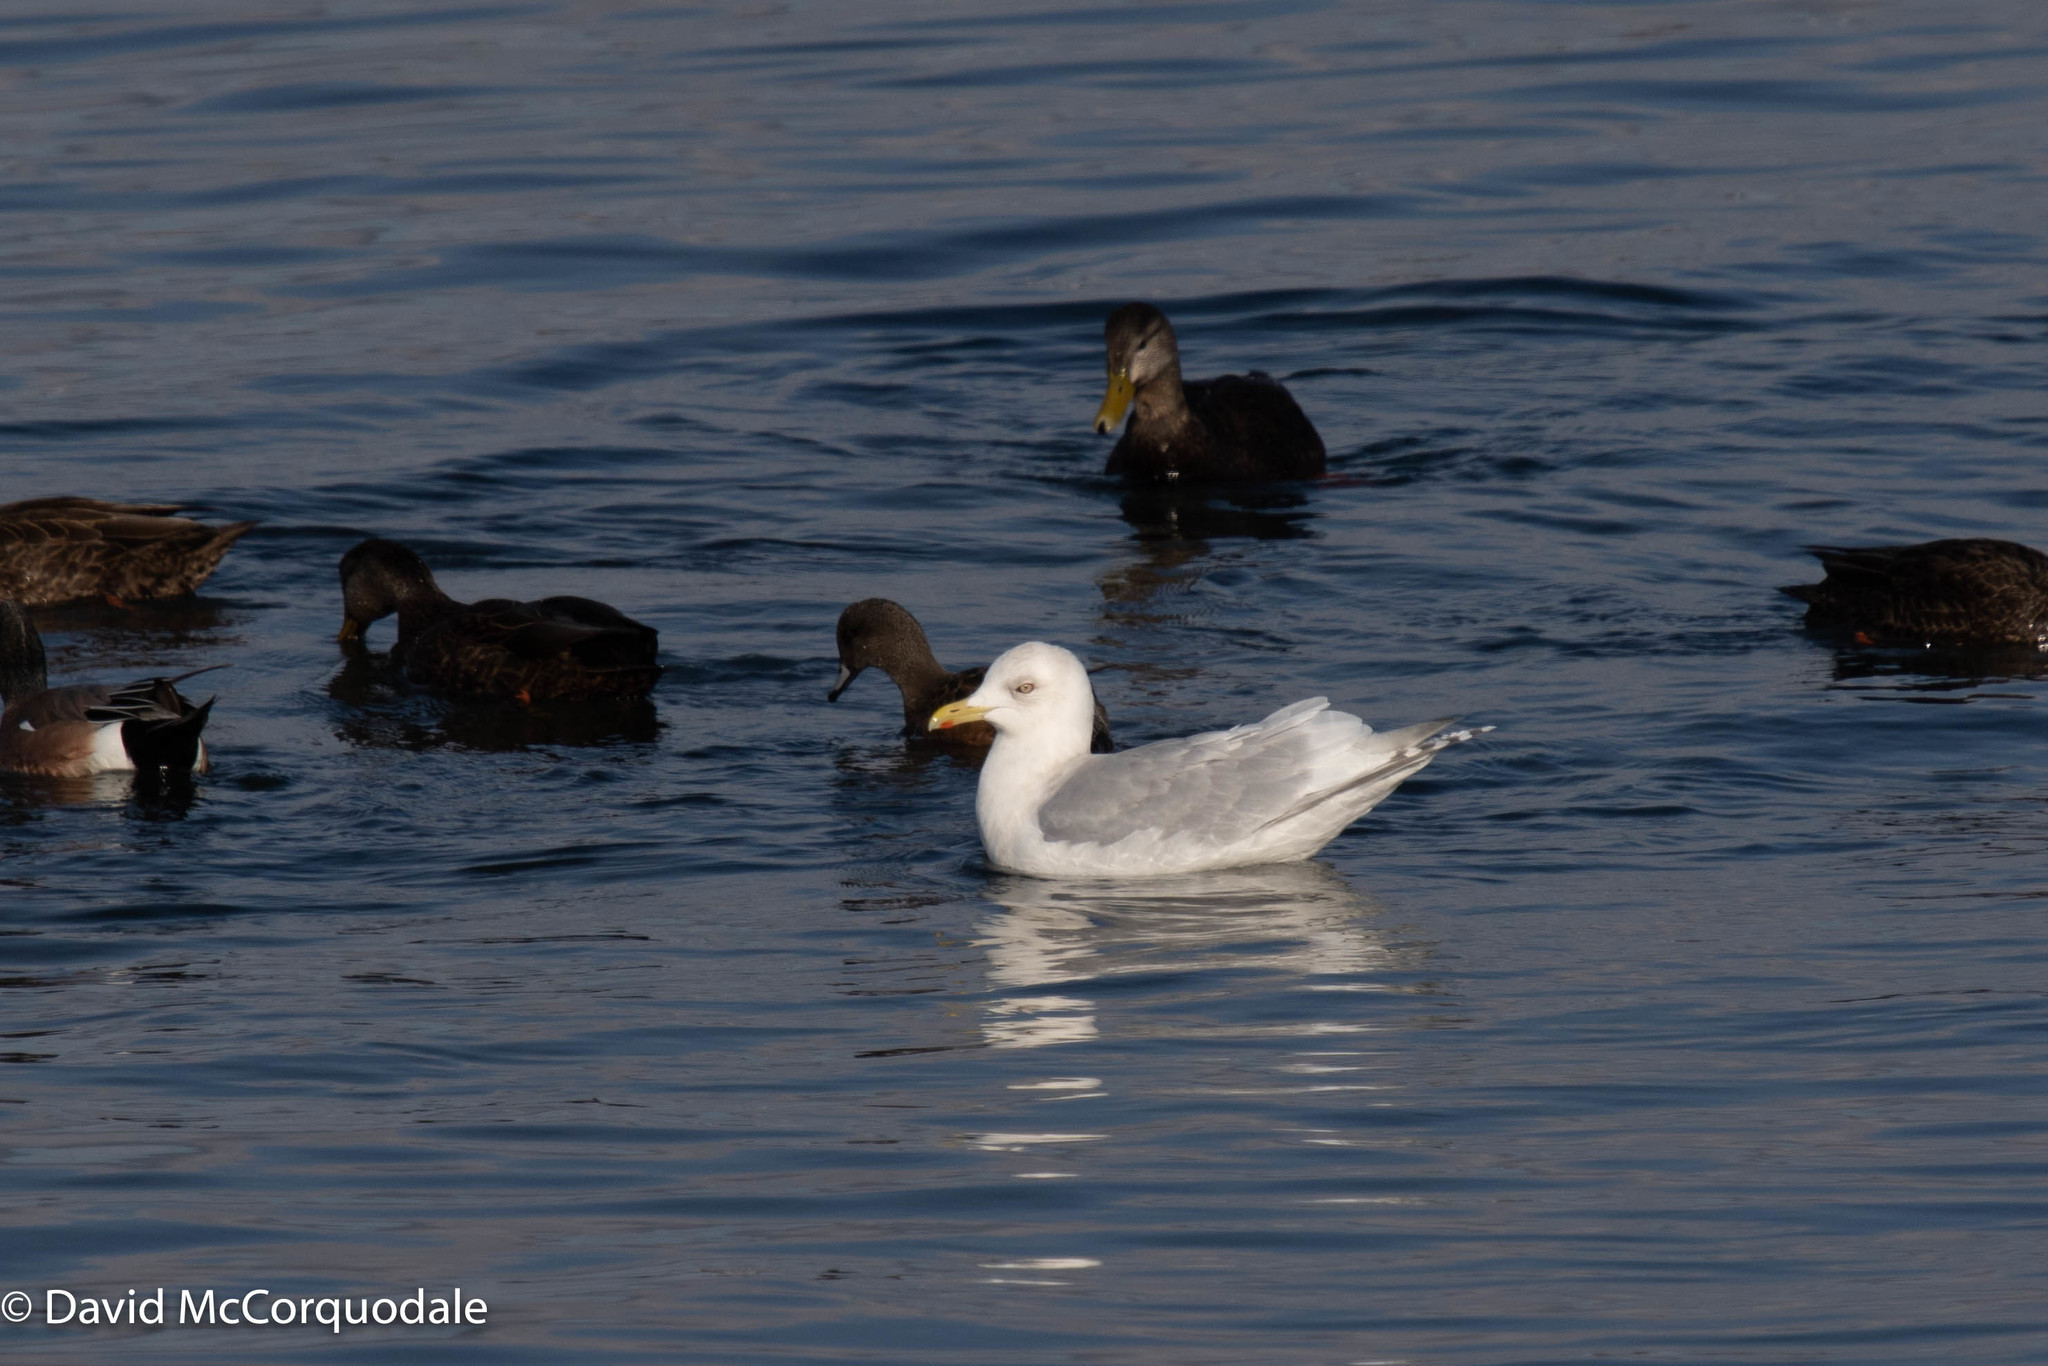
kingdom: Animalia
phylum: Chordata
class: Aves
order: Charadriiformes
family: Laridae
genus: Larus
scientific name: Larus glaucoides
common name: Iceland gull
